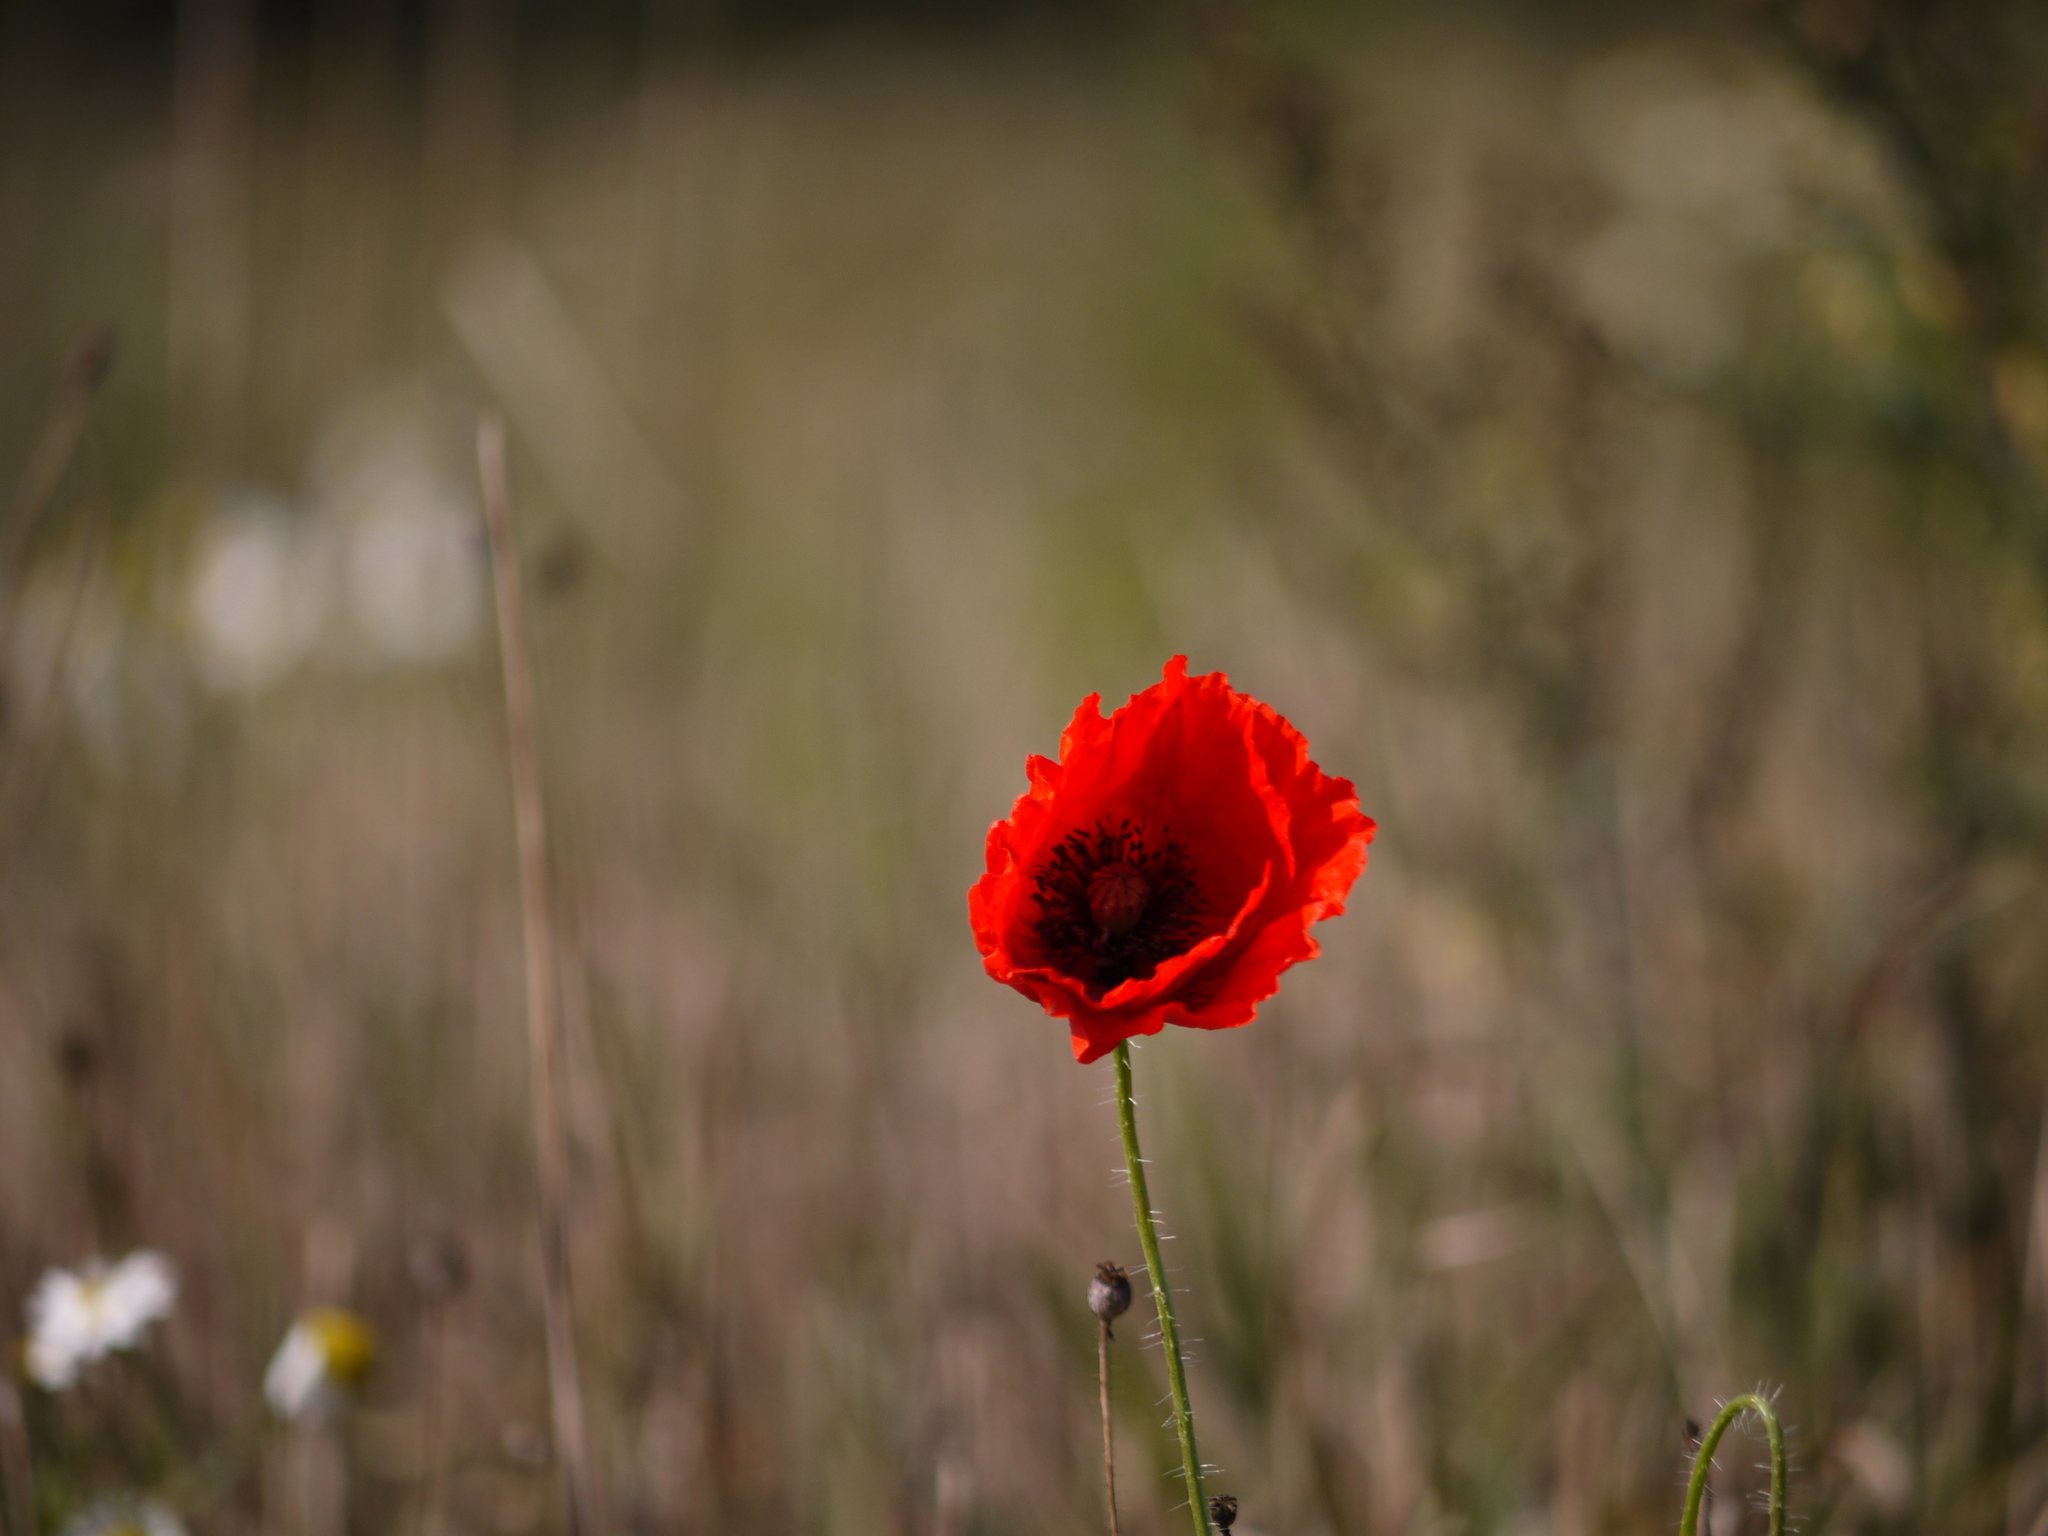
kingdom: Plantae
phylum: Tracheophyta
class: Magnoliopsida
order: Ranunculales
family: Papaveraceae
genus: Papaver
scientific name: Papaver rhoeas
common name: Corn poppy
